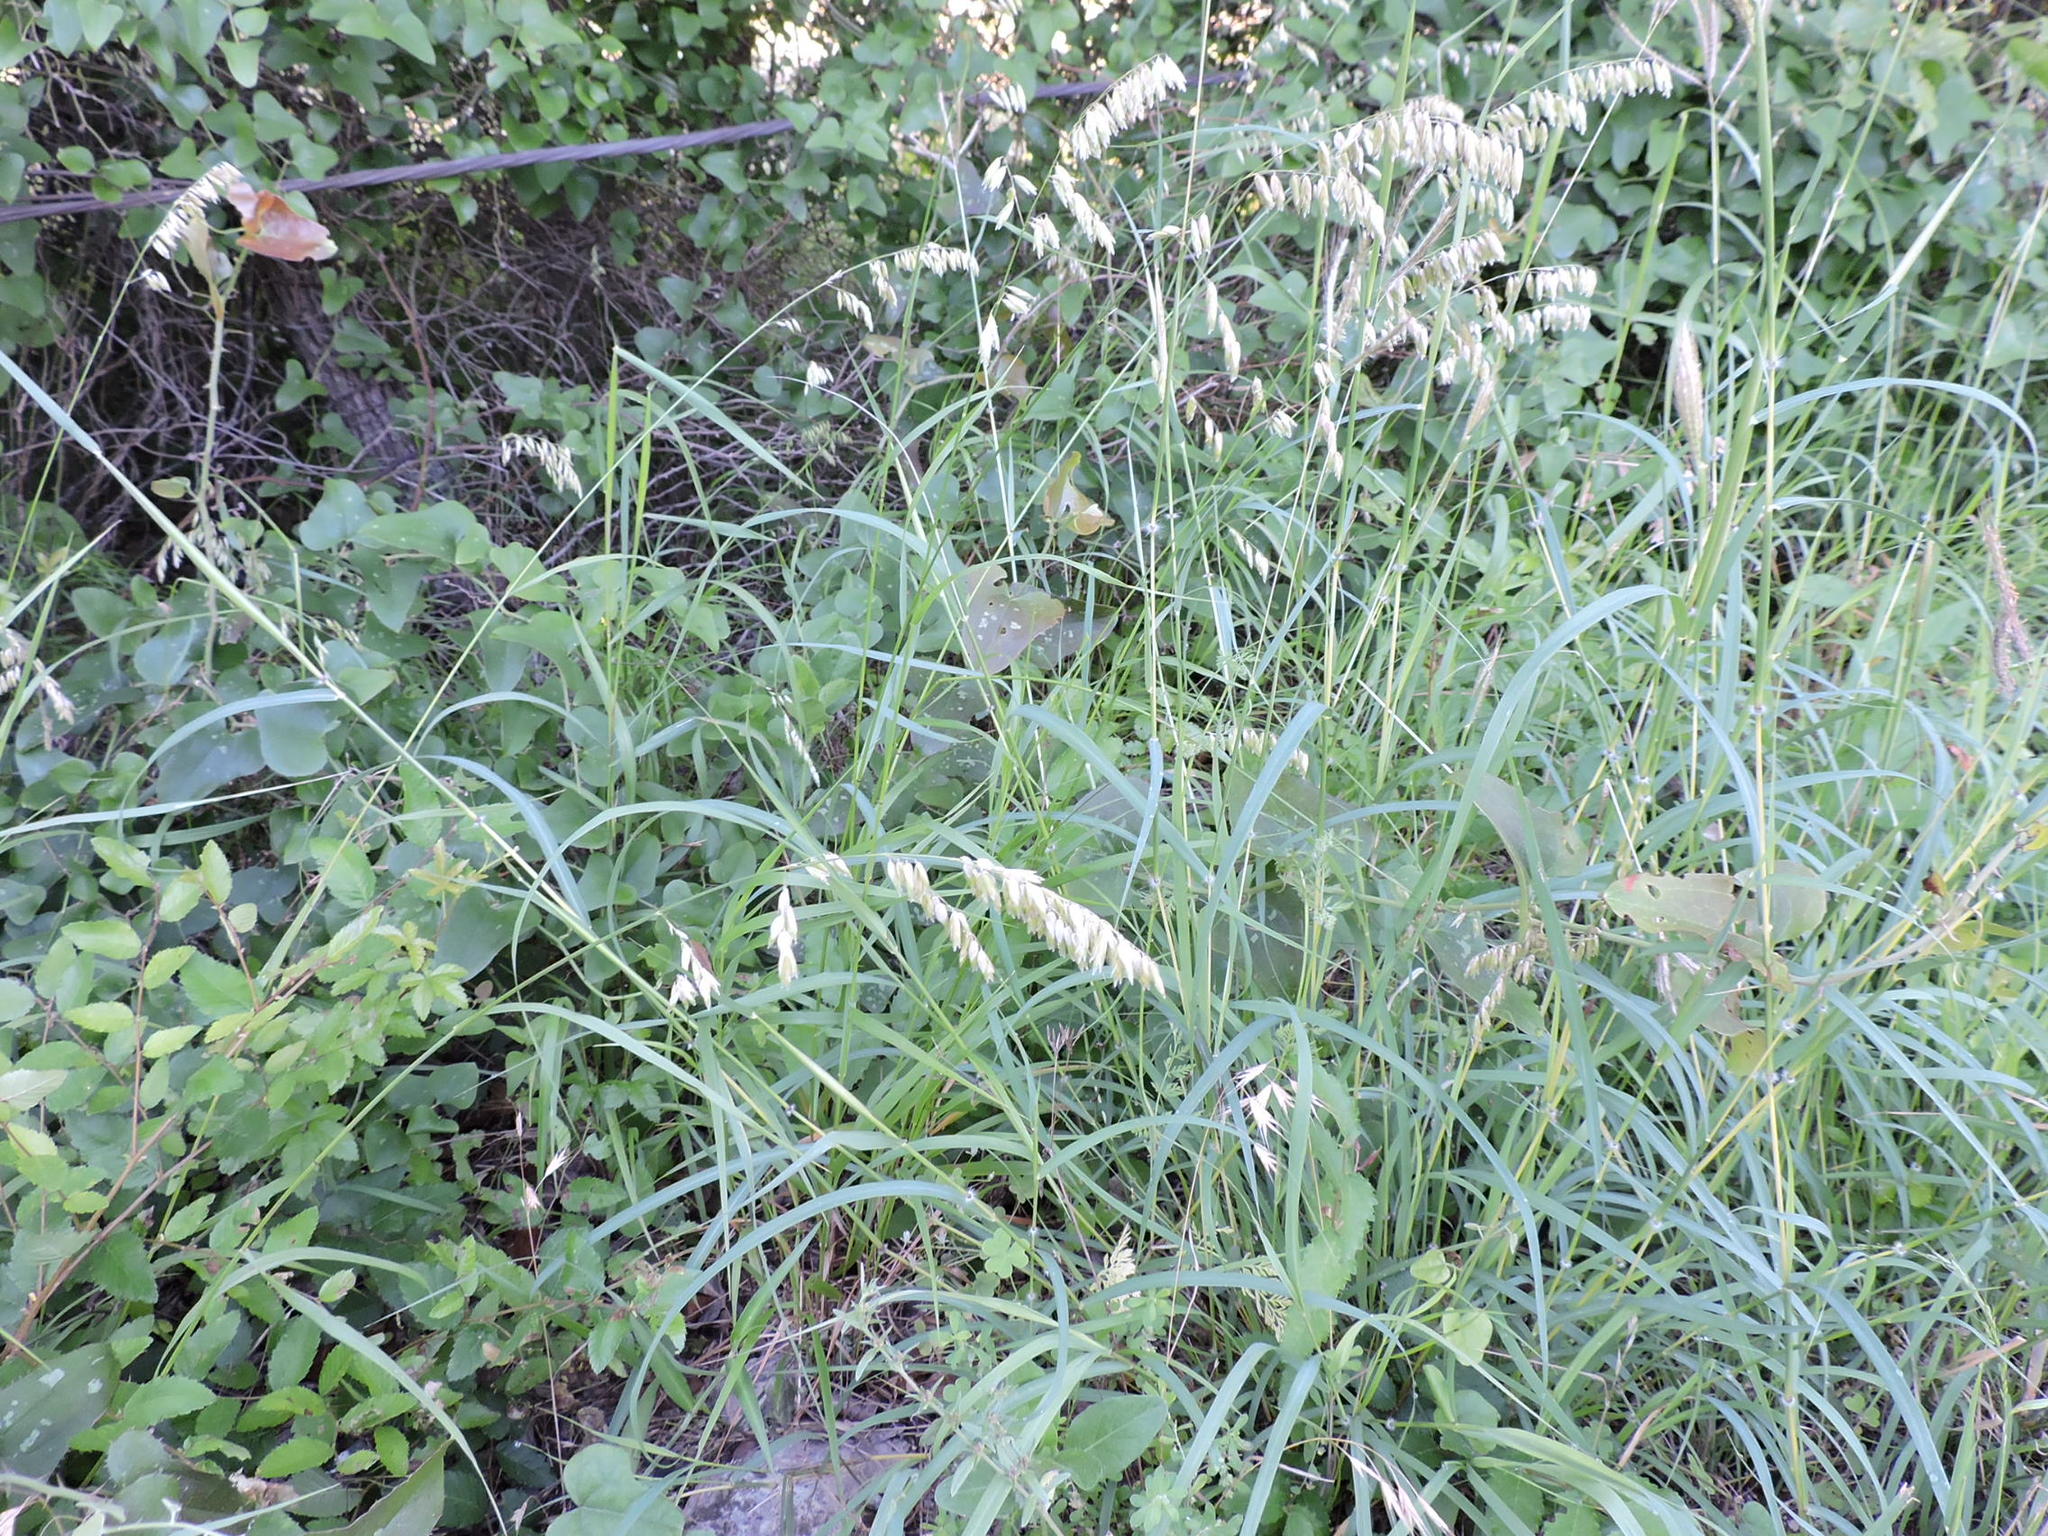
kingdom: Plantae
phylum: Tracheophyta
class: Liliopsida
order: Poales
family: Poaceae
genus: Melica
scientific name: Melica nitens
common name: Three-flower melic
